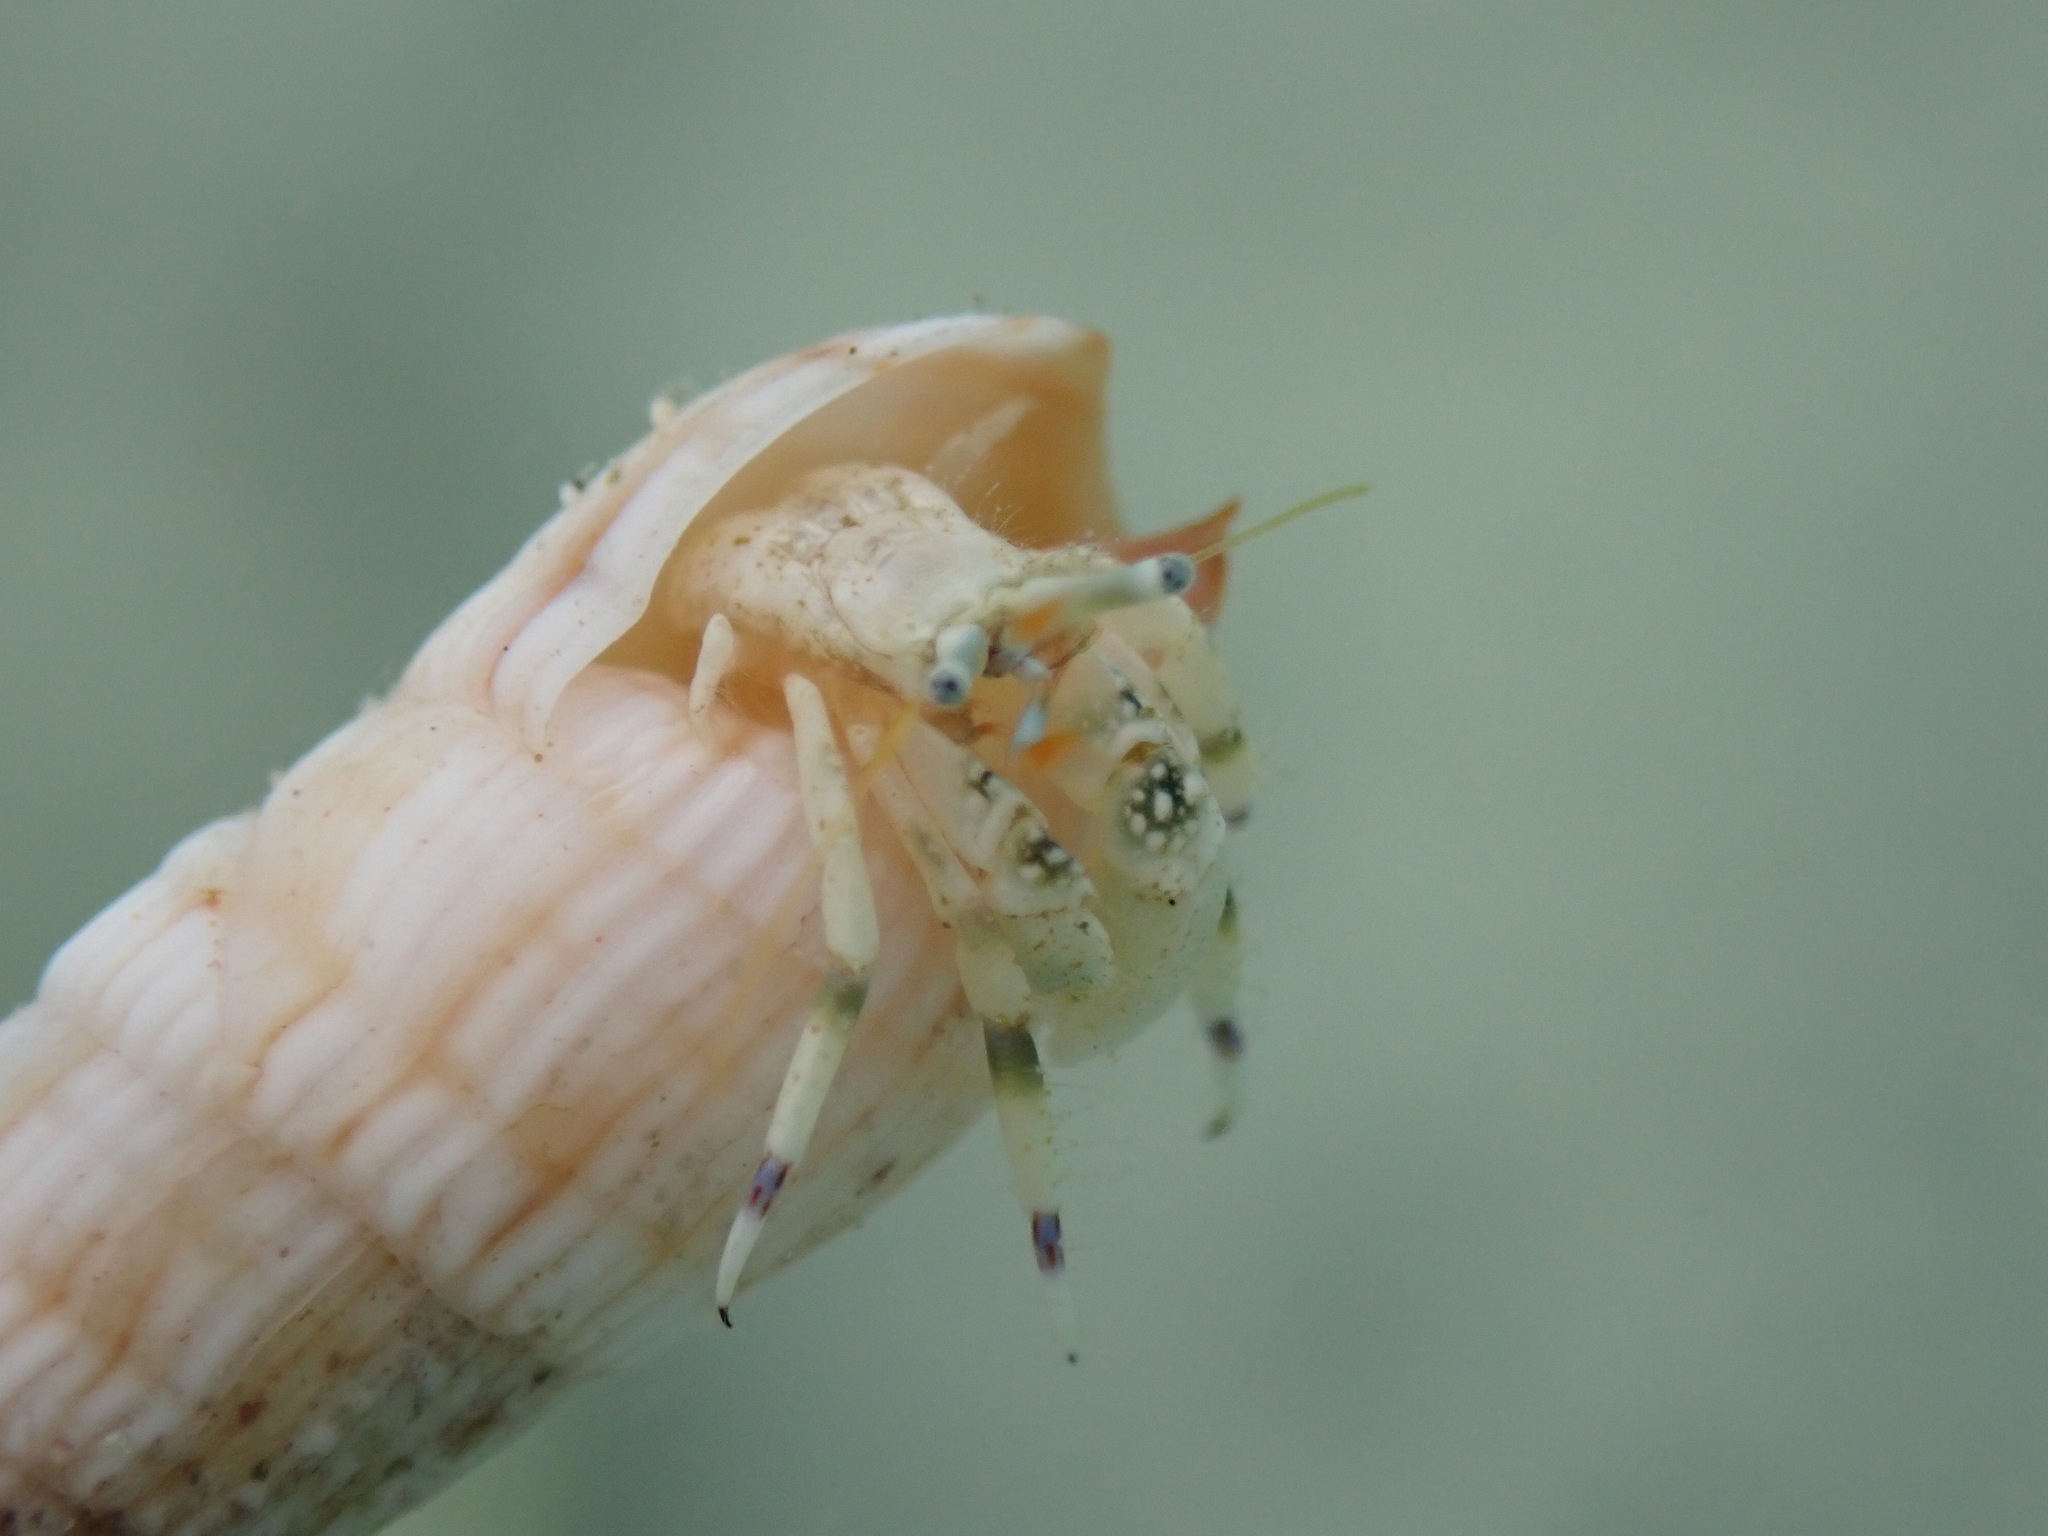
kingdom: Animalia
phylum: Arthropoda
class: Malacostraca
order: Decapoda
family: Diogenidae
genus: Calcinus
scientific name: Calcinus latens
